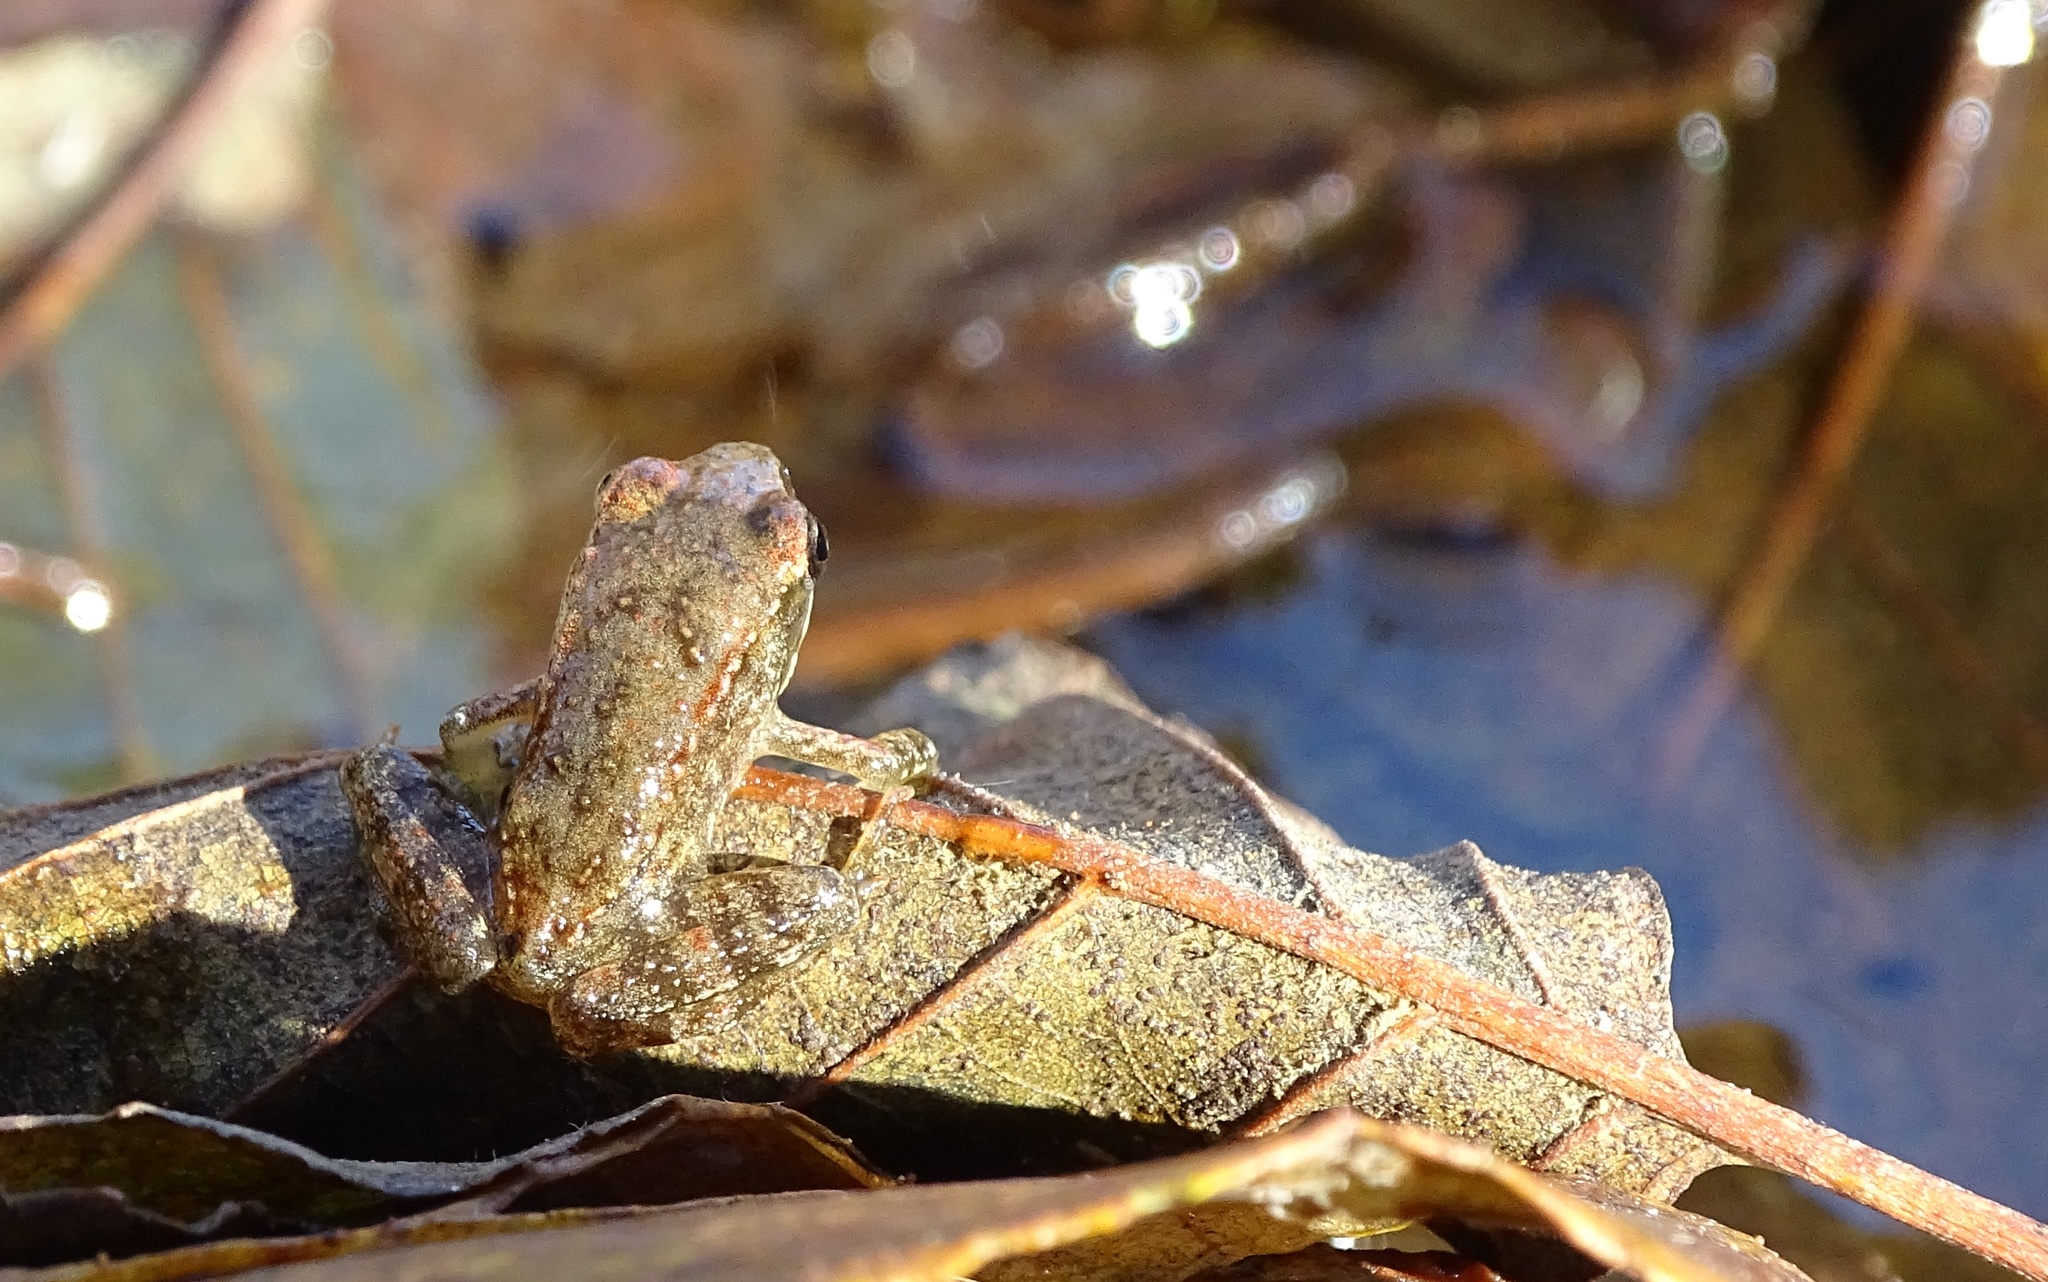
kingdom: Animalia
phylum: Chordata
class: Amphibia
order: Anura
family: Ranidae
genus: Rana
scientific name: Rana iberica
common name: Iberian frog
